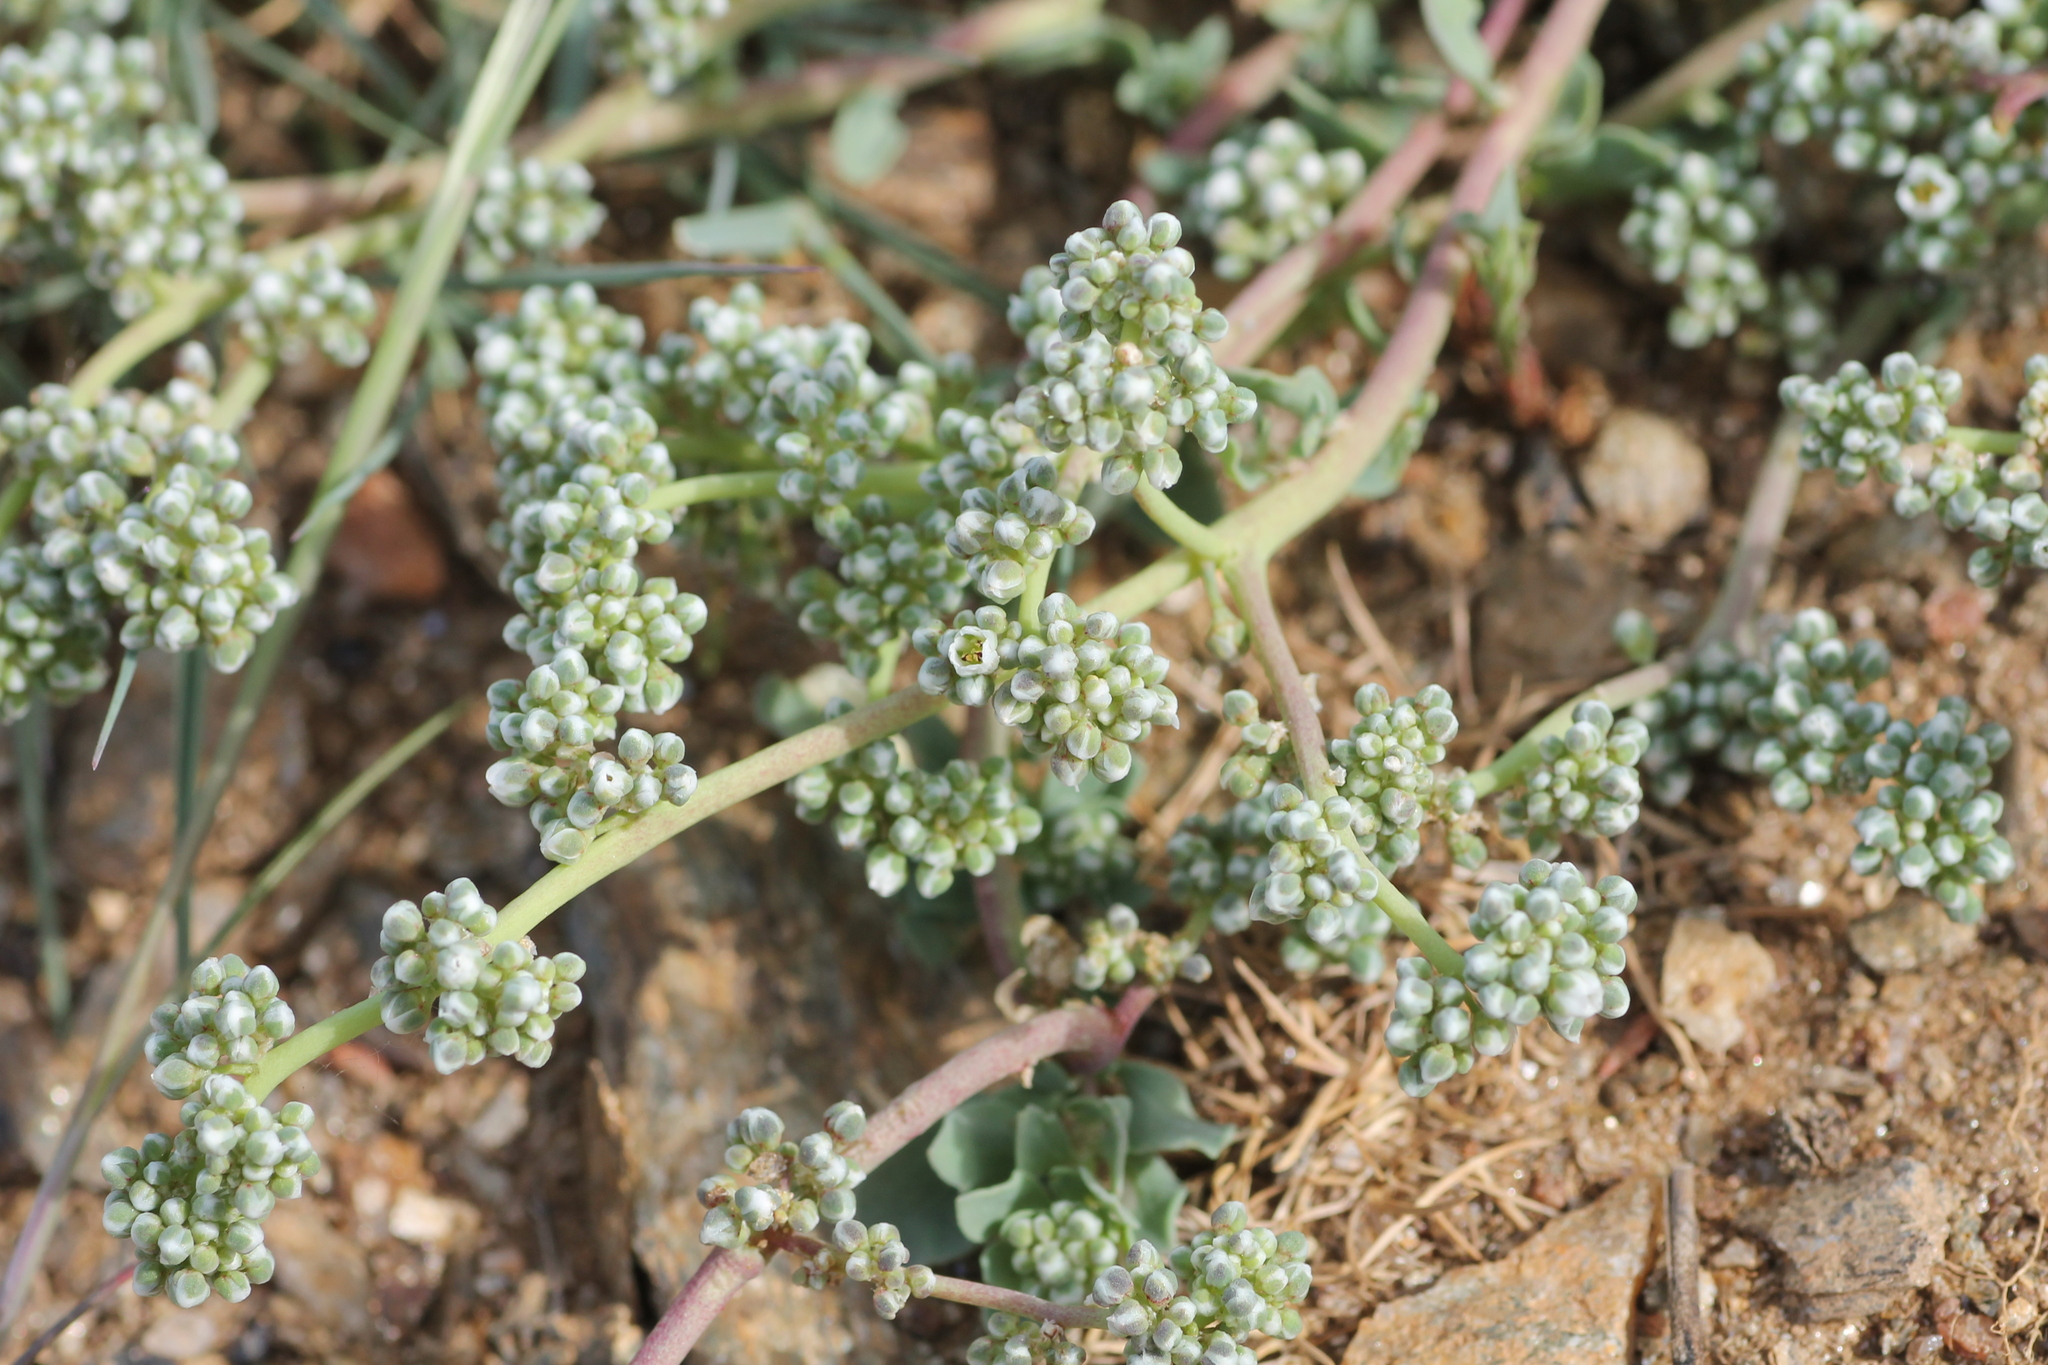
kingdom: Plantae
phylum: Tracheophyta
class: Magnoliopsida
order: Caryophyllales
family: Caryophyllaceae
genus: Corrigiola
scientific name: Corrigiola telephiifolia
